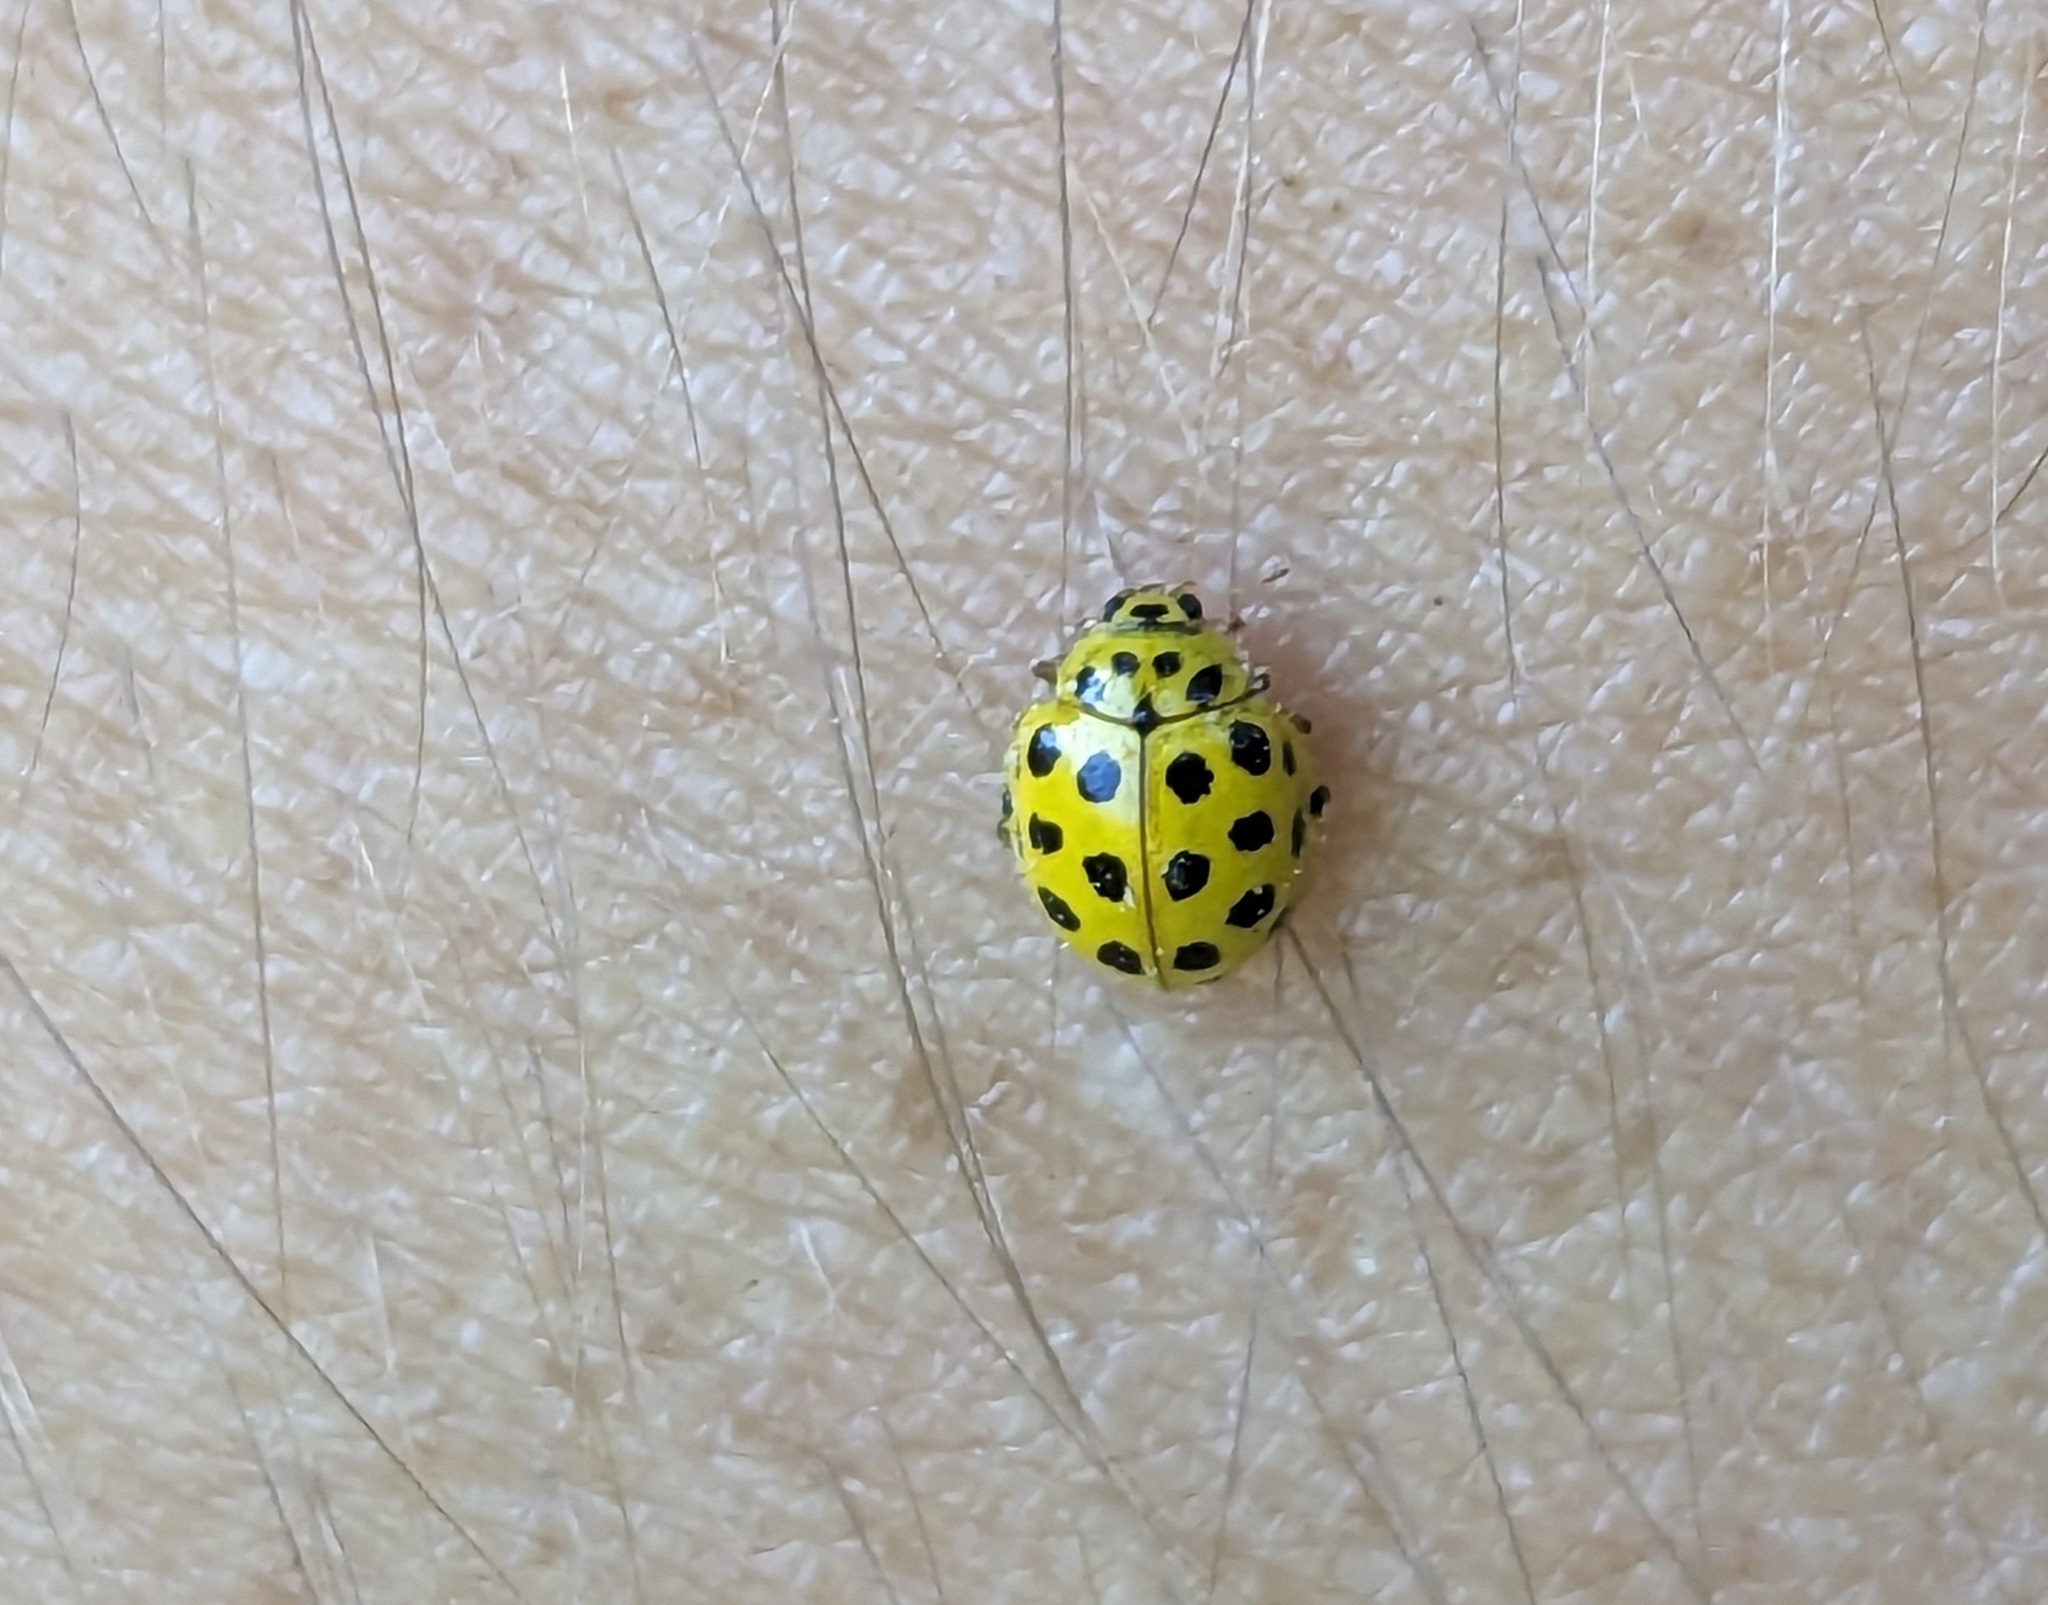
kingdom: Animalia
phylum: Arthropoda
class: Insecta
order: Coleoptera
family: Coccinellidae
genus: Psyllobora
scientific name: Psyllobora vigintiduopunctata
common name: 22-spot ladybird
